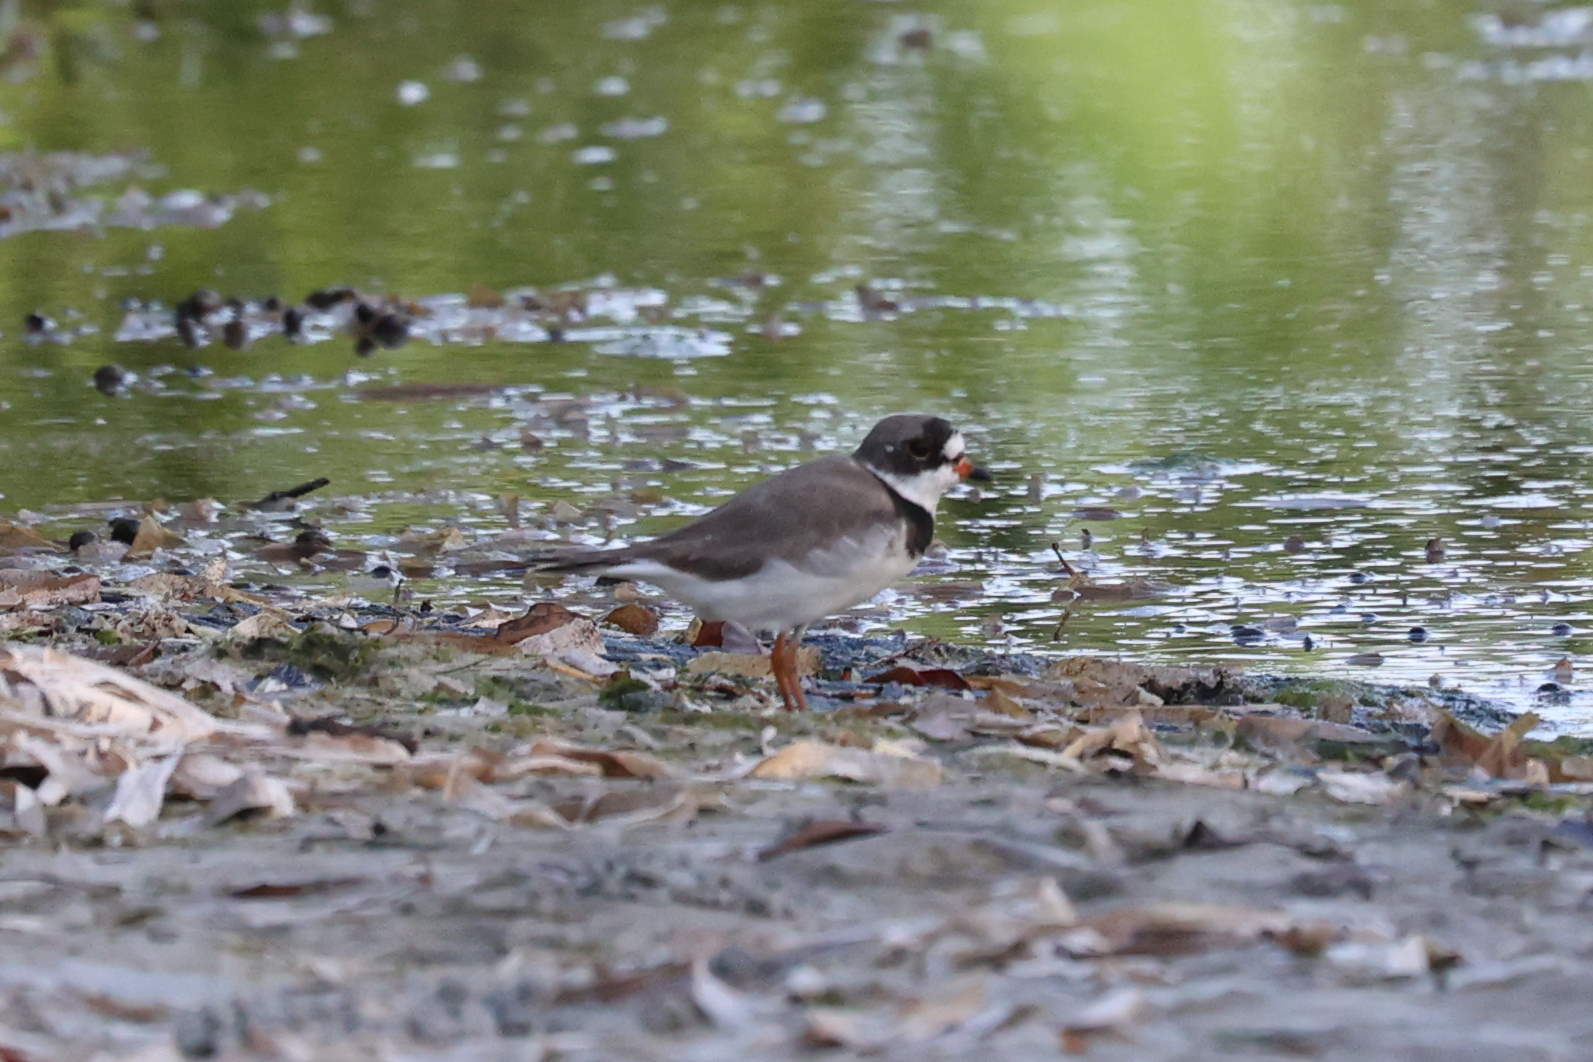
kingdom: Animalia
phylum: Chordata
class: Aves
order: Charadriiformes
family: Charadriidae
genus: Charadrius
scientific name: Charadrius semipalmatus
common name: Semipalmated plover
